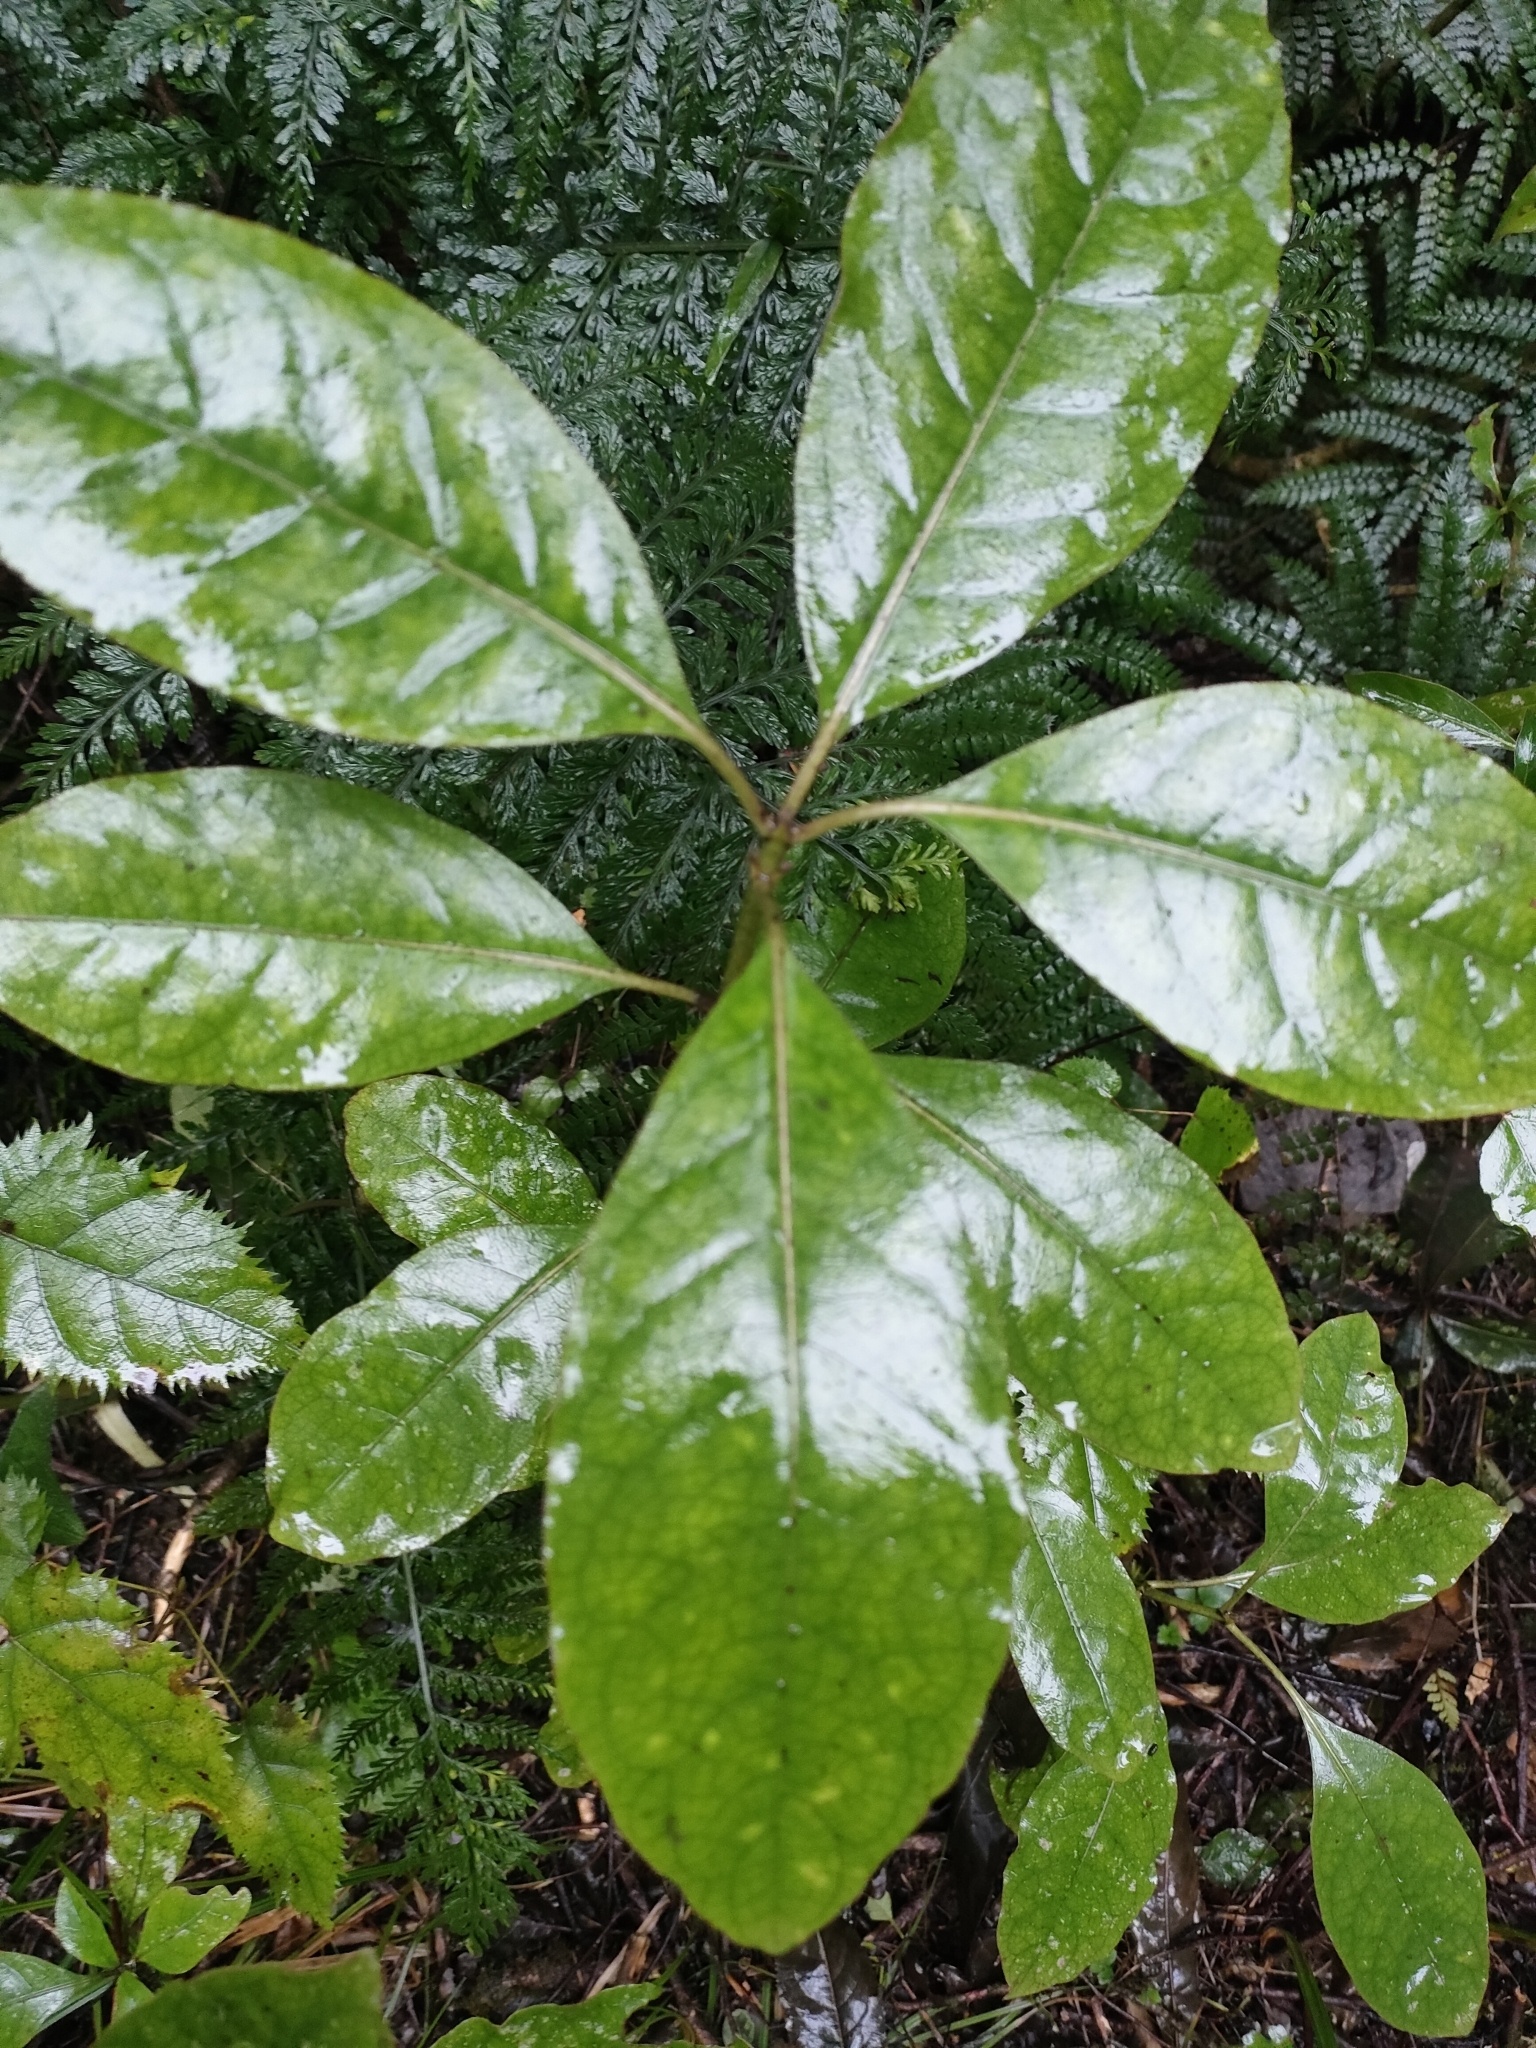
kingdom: Plantae
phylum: Tracheophyta
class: Magnoliopsida
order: Gentianales
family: Rubiaceae
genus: Coprosma
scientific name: Coprosma autumnalis
